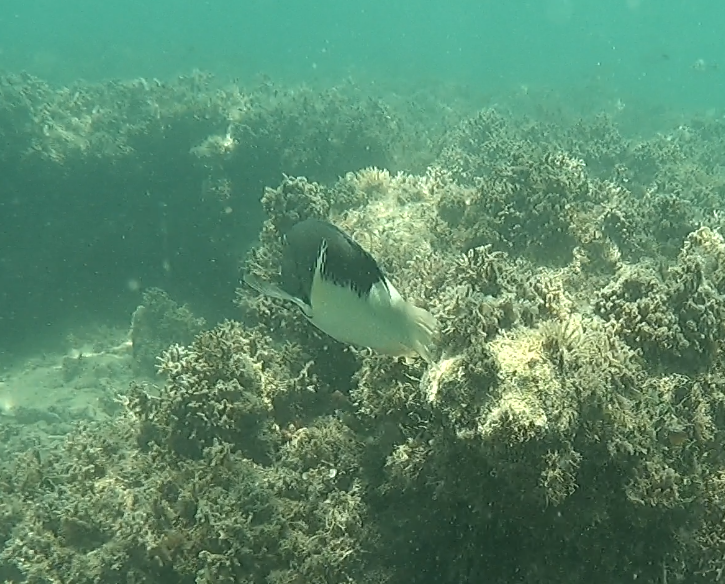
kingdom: Animalia
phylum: Chordata
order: Perciformes
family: Labridae
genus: Choerodon
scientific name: Choerodon anchorago
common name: Anchor tuskfish
